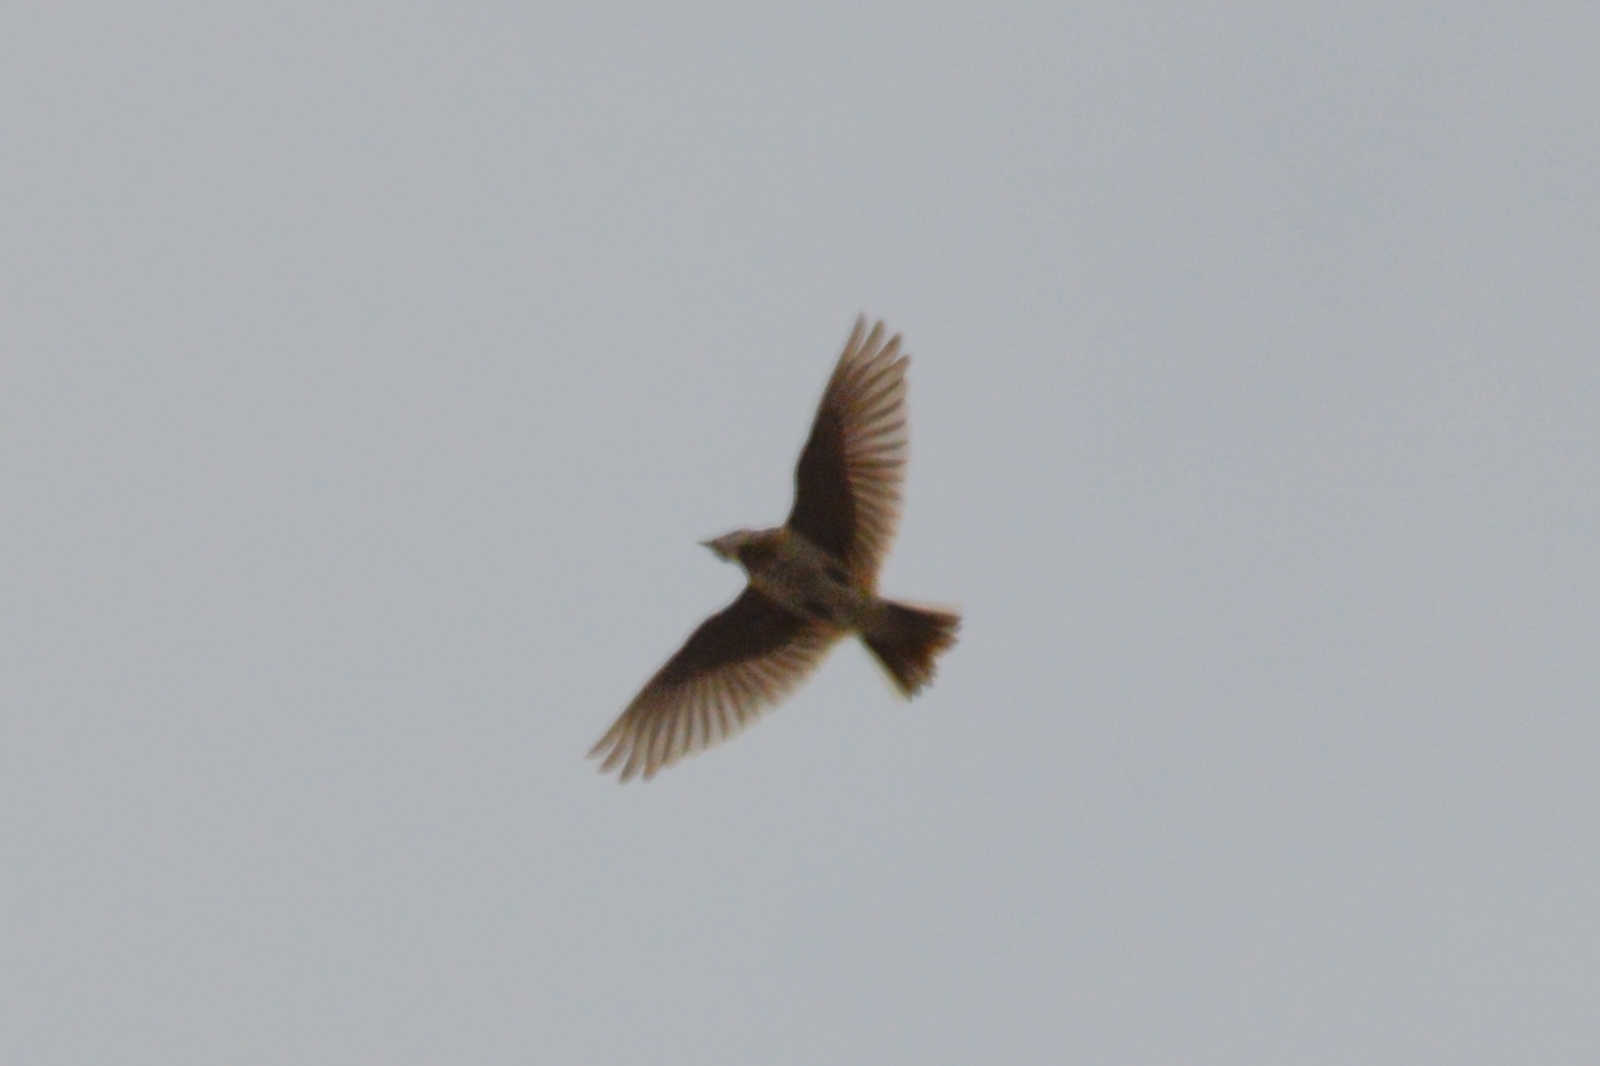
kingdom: Animalia
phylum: Chordata
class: Aves
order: Passeriformes
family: Alaudidae
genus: Alauda
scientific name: Alauda arvensis
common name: Eurasian skylark
